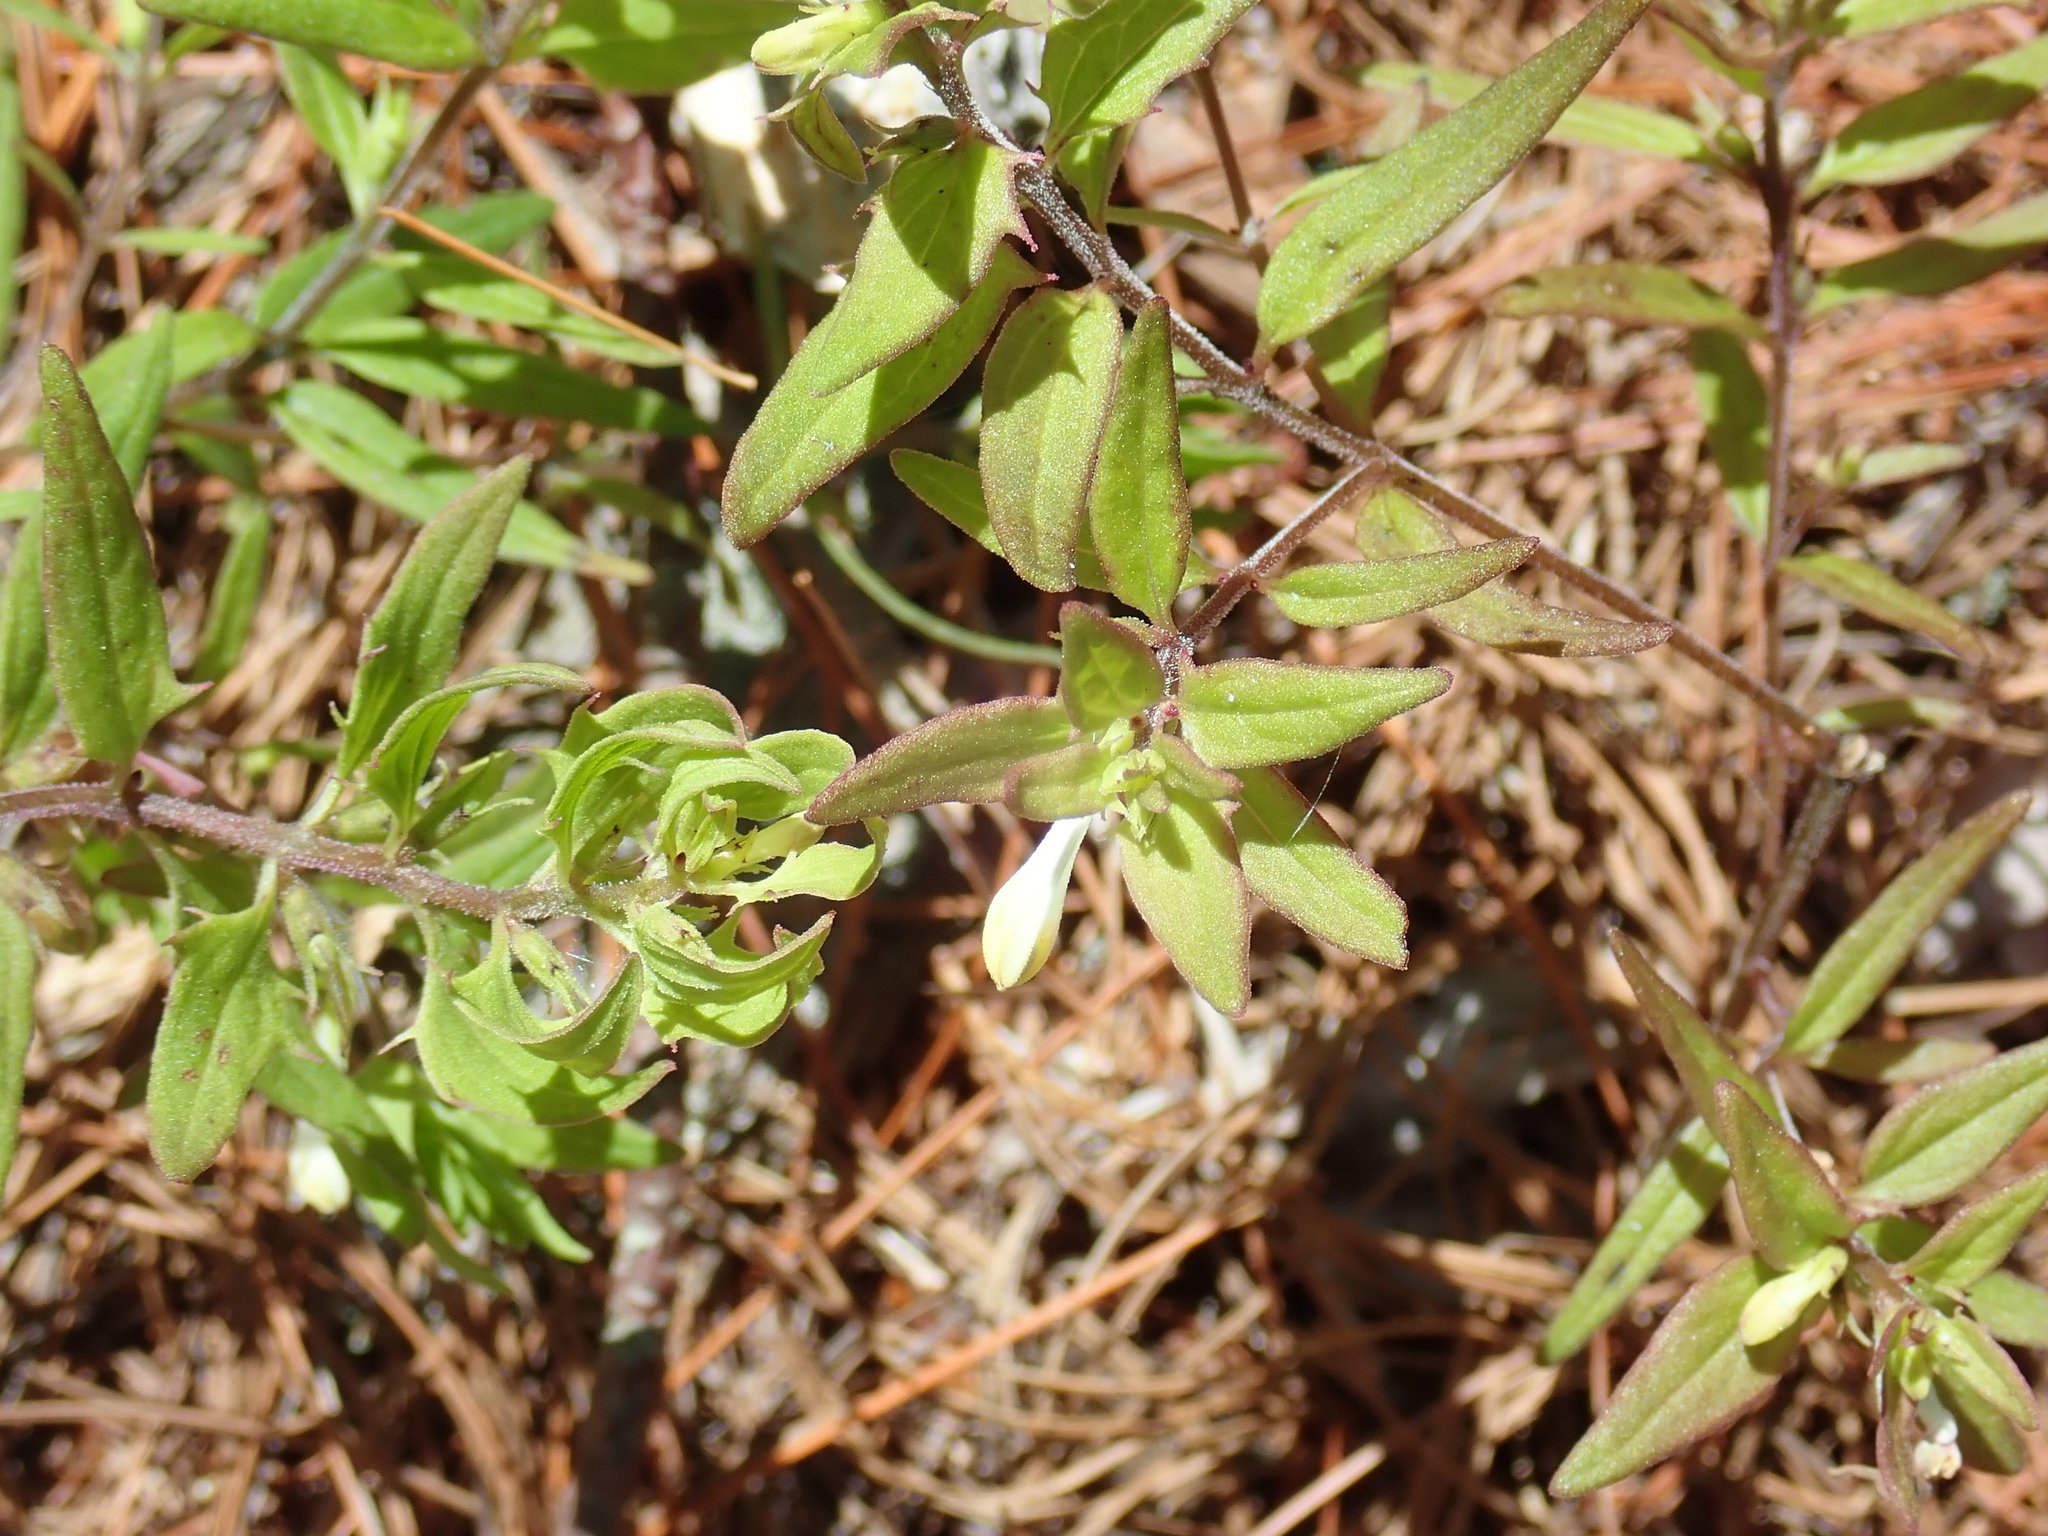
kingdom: Plantae
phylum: Tracheophyta
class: Magnoliopsida
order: Lamiales
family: Orobanchaceae
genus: Melampyrum
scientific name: Melampyrum lineare
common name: American cow-wheat
